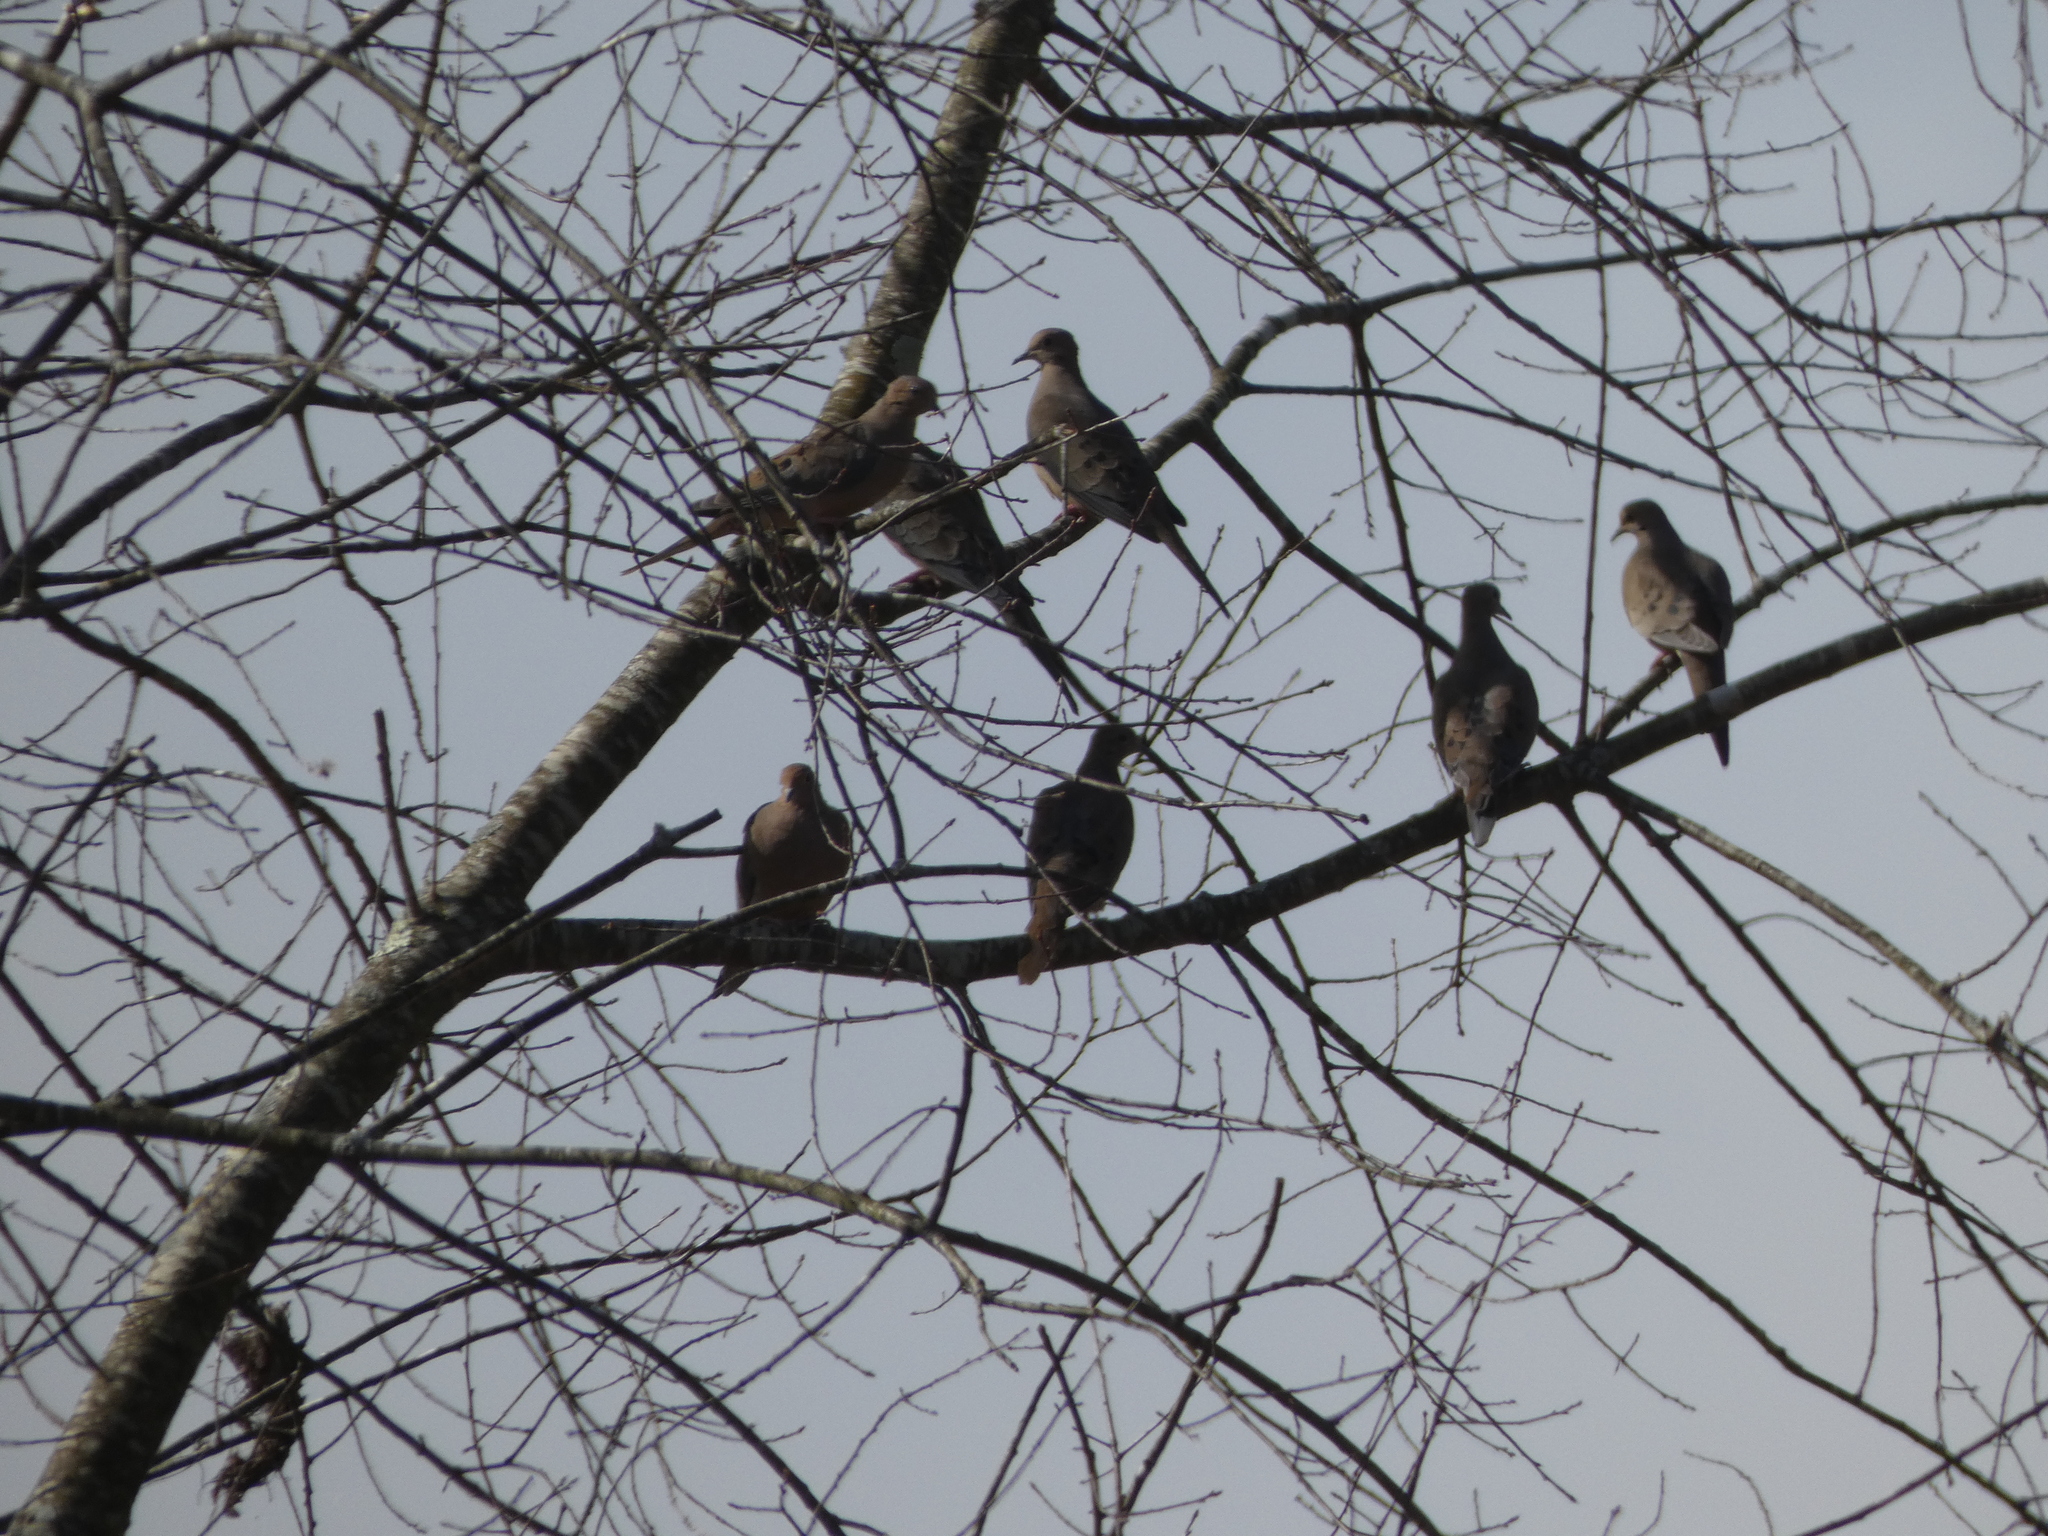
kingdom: Animalia
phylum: Chordata
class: Aves
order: Columbiformes
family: Columbidae
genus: Zenaida
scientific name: Zenaida macroura
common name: Mourning dove
